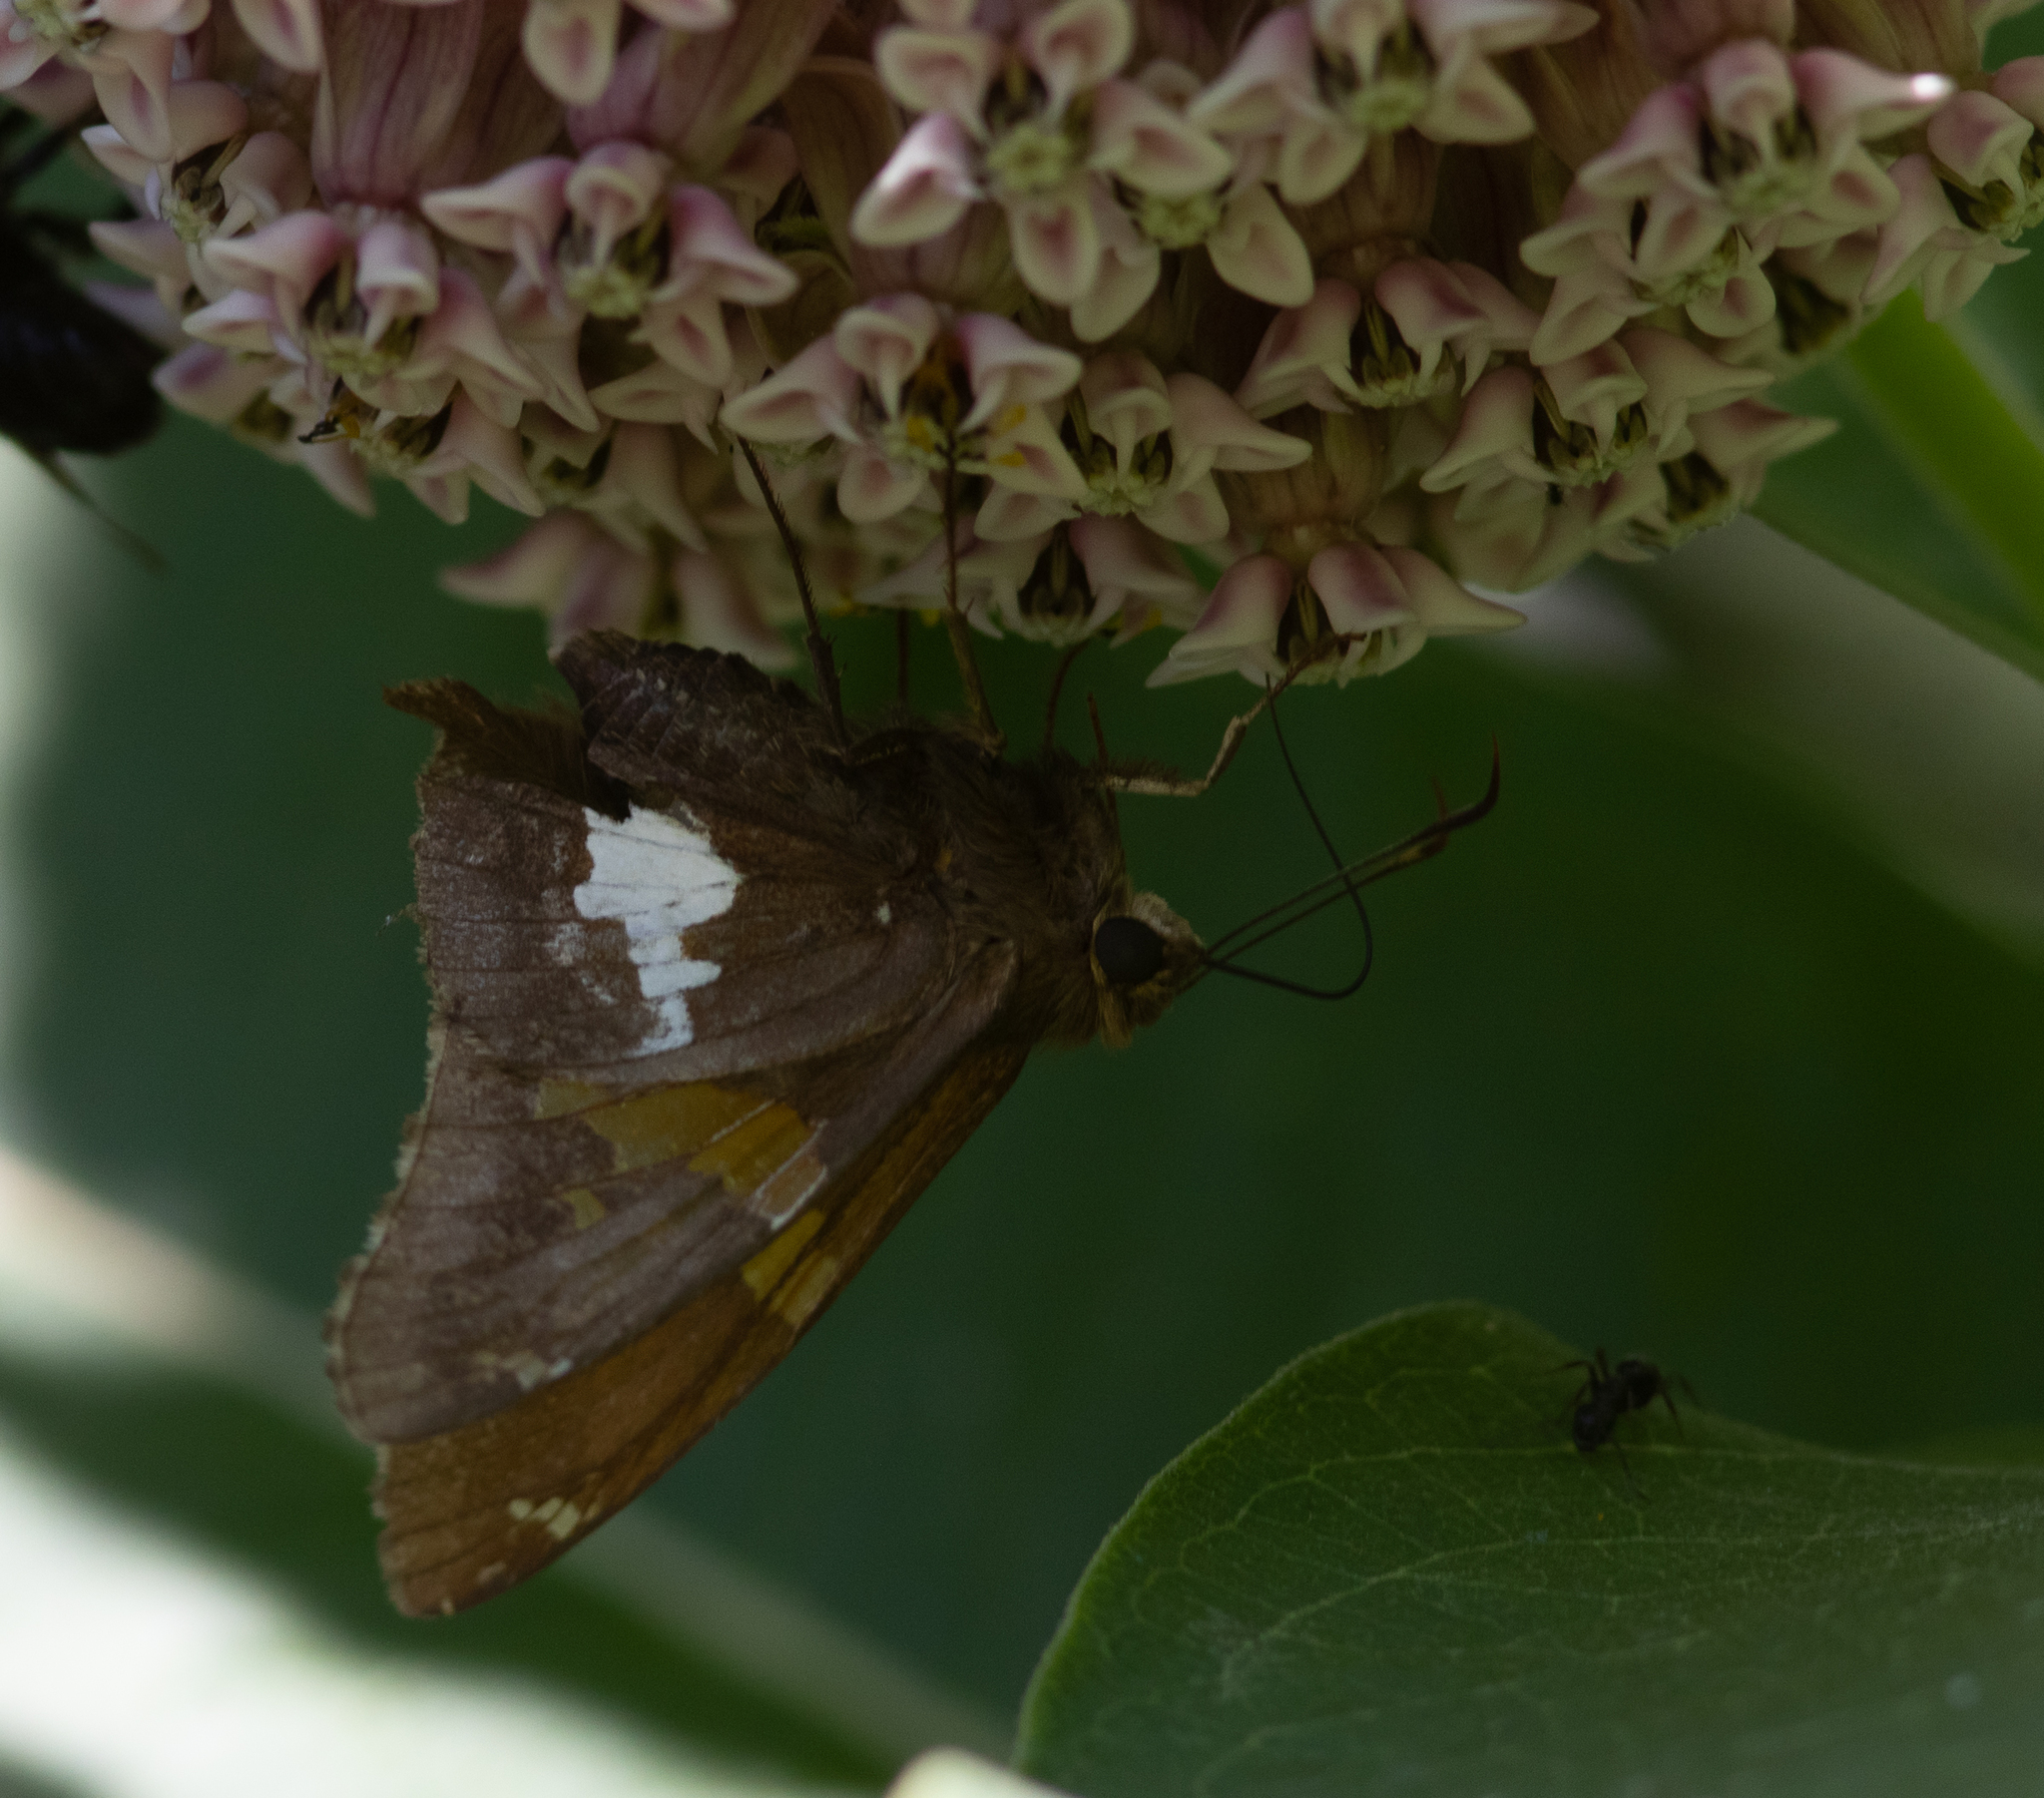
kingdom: Animalia
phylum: Arthropoda
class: Insecta
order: Lepidoptera
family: Hesperiidae
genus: Epargyreus
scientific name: Epargyreus clarus
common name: Silver-spotted skipper
